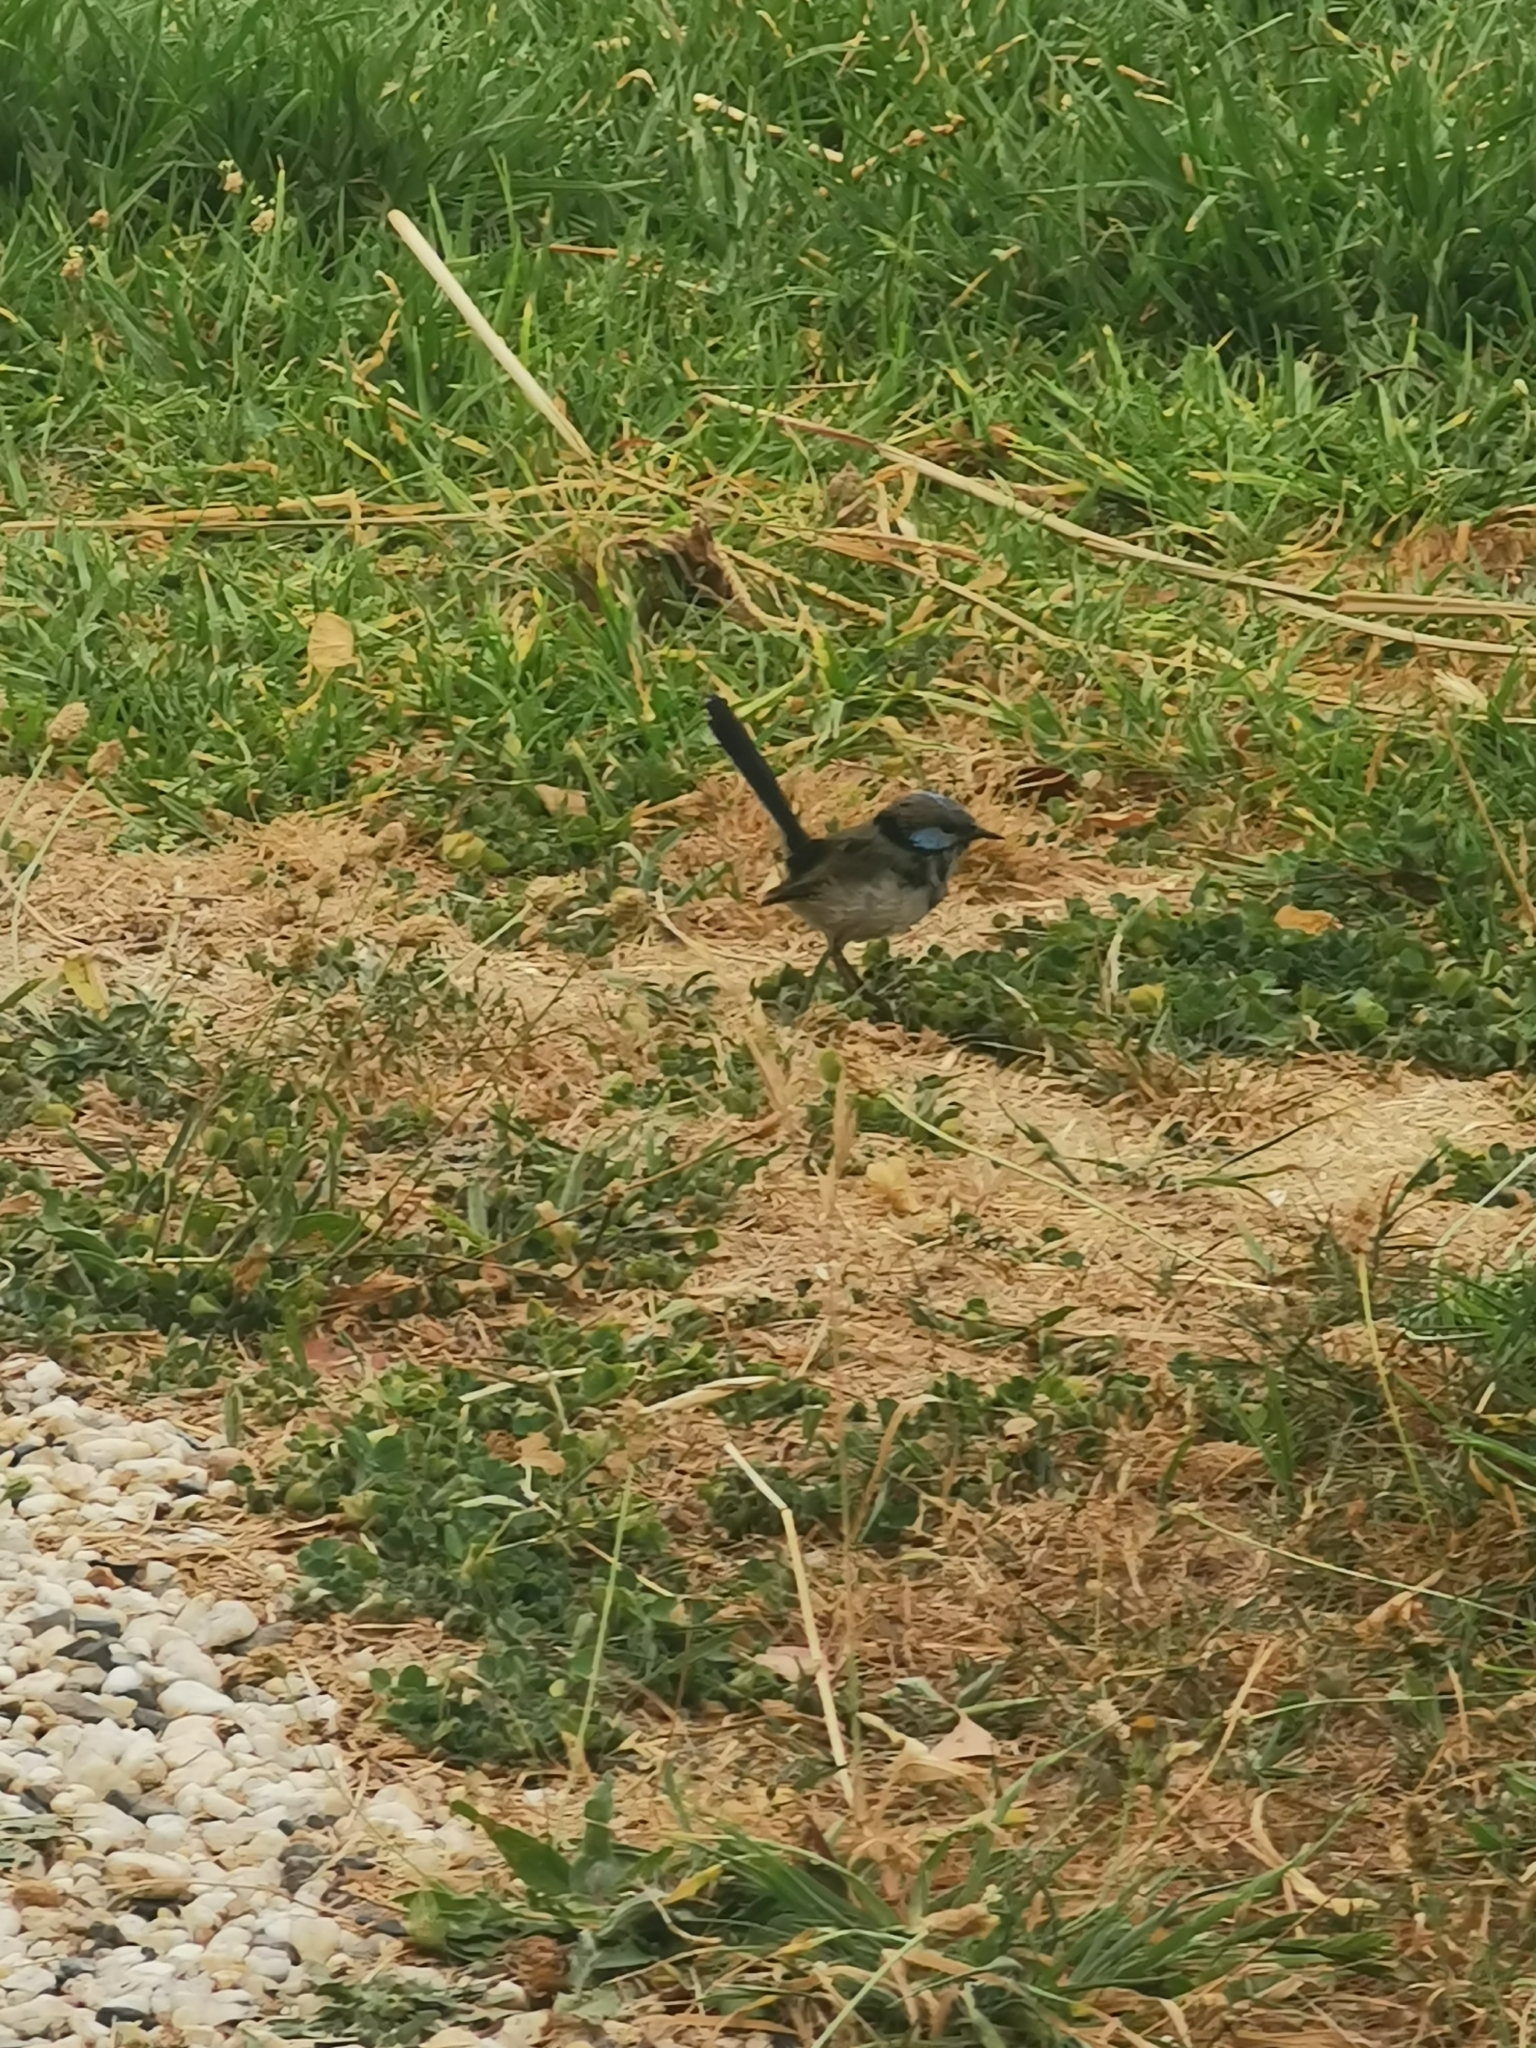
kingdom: Animalia
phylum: Chordata
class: Aves
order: Passeriformes
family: Maluridae
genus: Malurus
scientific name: Malurus cyaneus
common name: Superb fairywren
